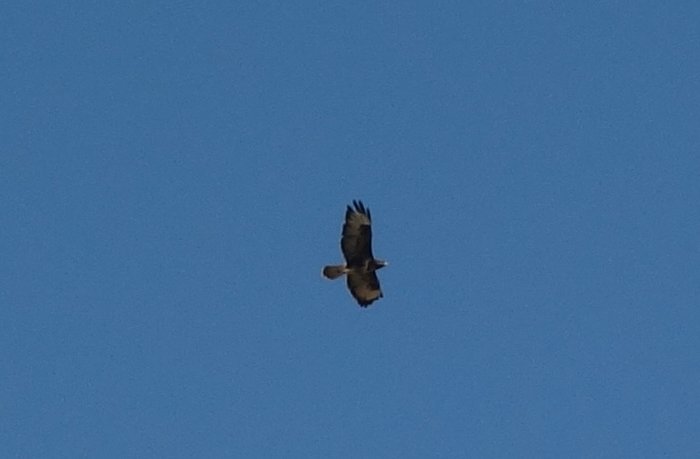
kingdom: Animalia
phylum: Chordata
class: Aves
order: Accipitriformes
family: Accipitridae
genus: Buteo
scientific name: Buteo buteo
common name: Common buzzard
